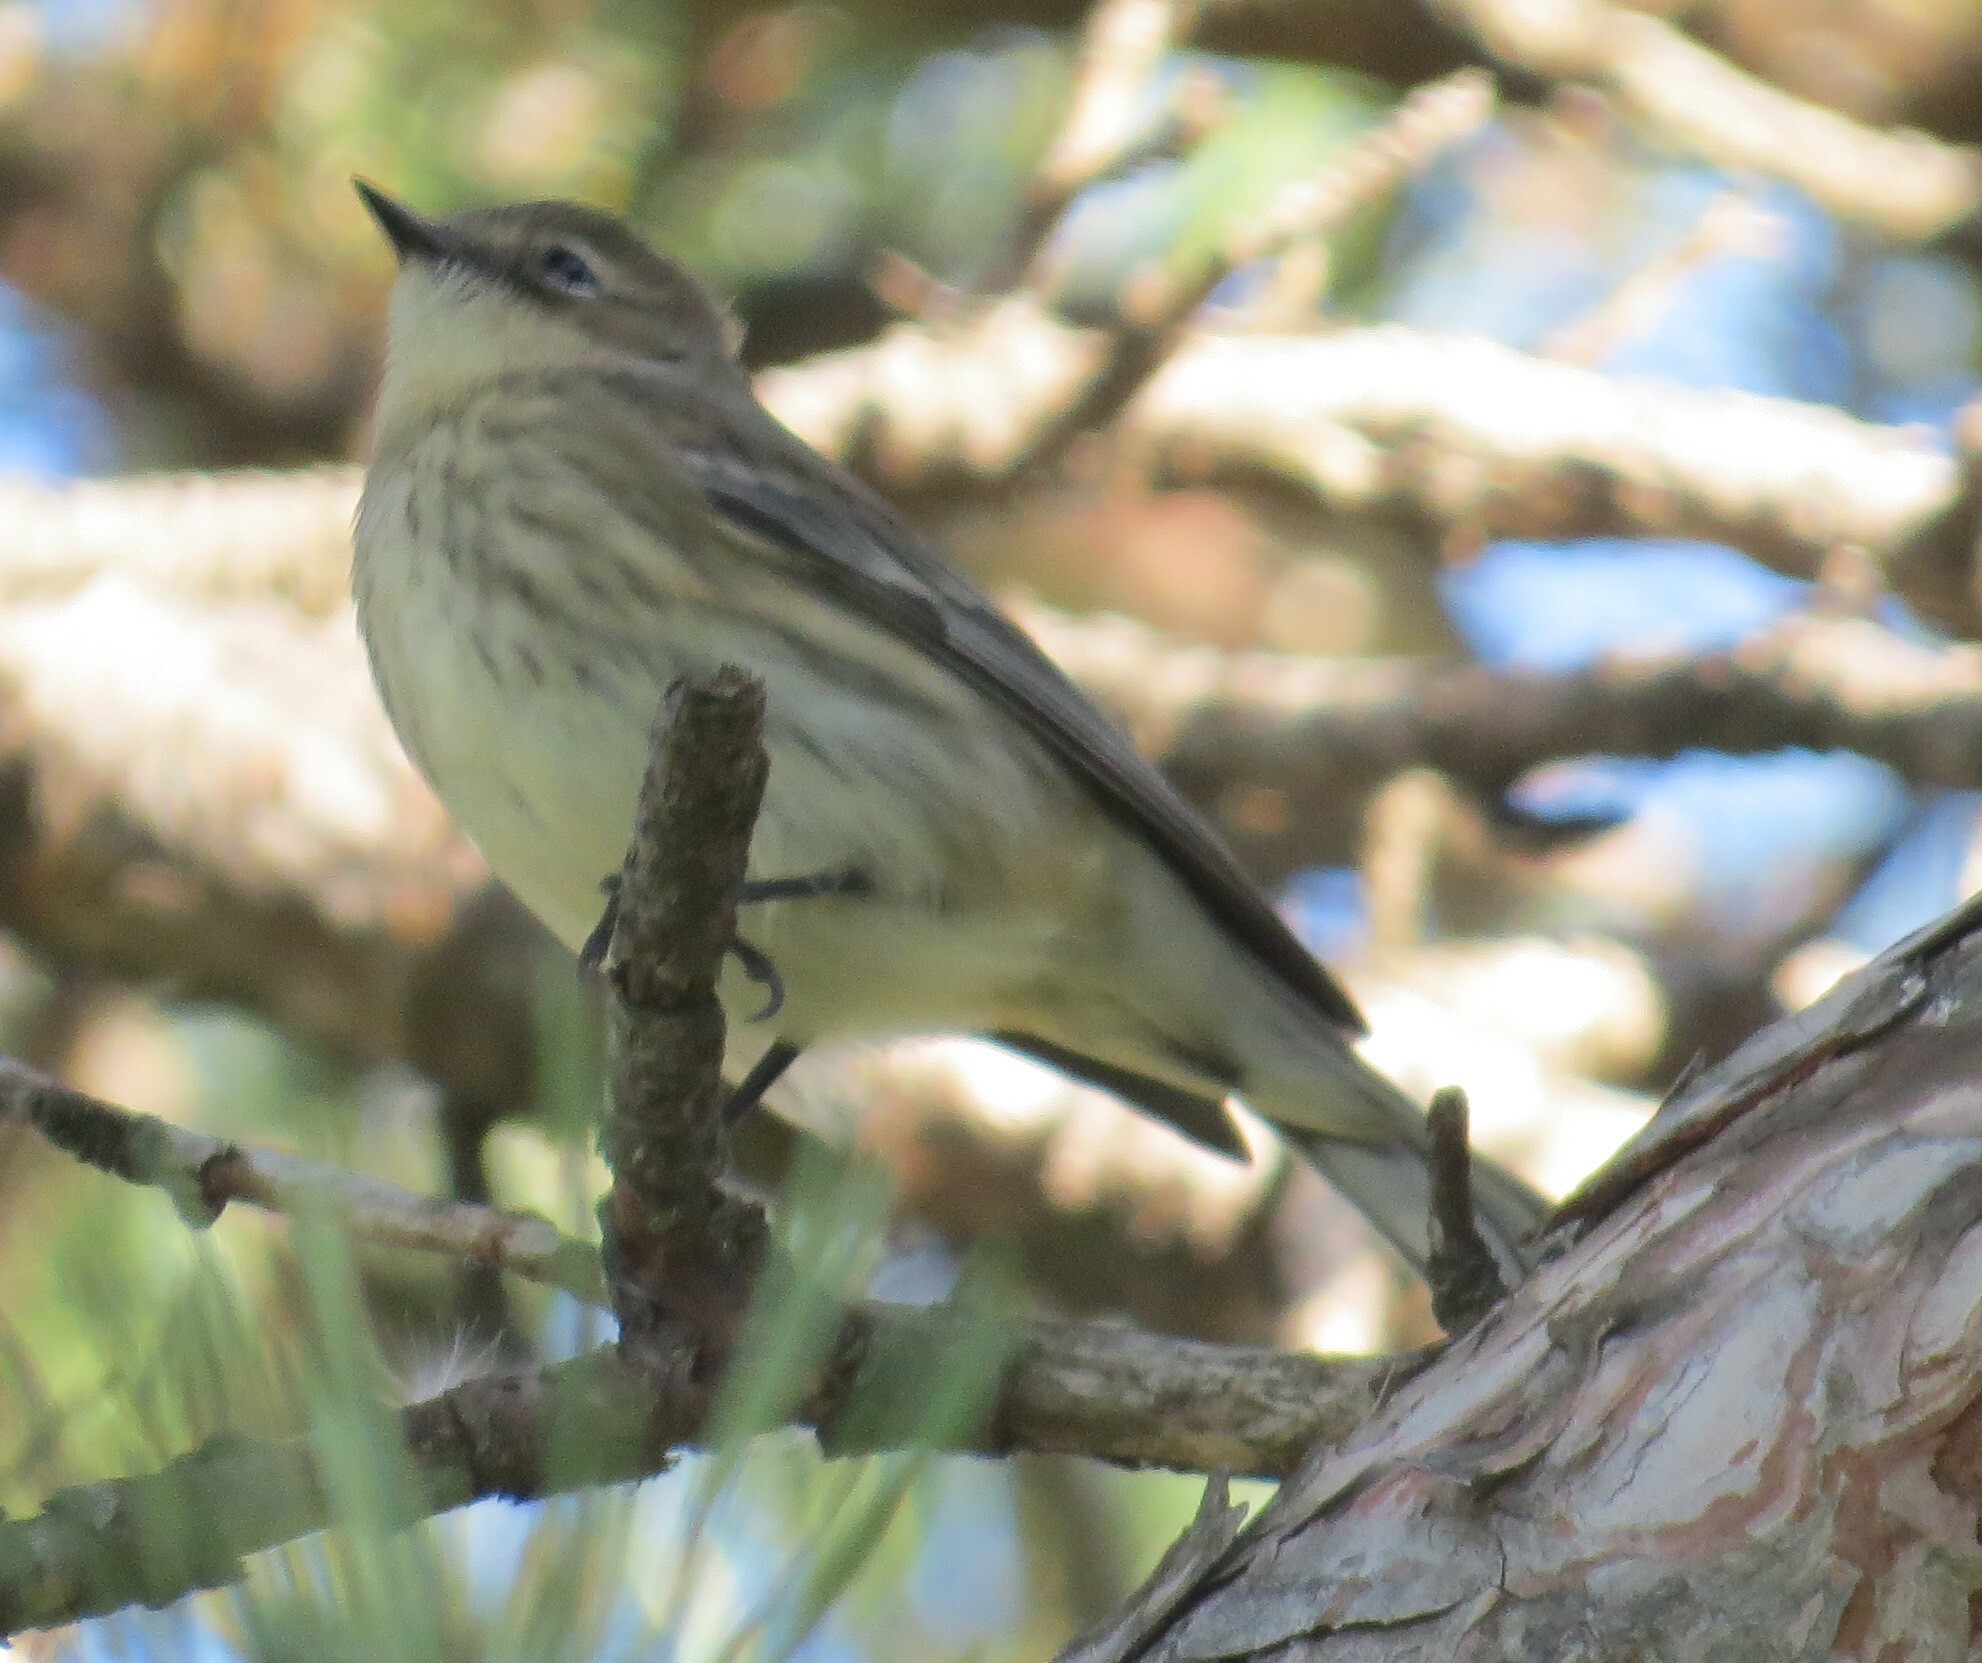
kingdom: Animalia
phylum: Chordata
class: Aves
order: Passeriformes
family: Parulidae
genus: Setophaga
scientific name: Setophaga coronata
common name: Myrtle warbler
